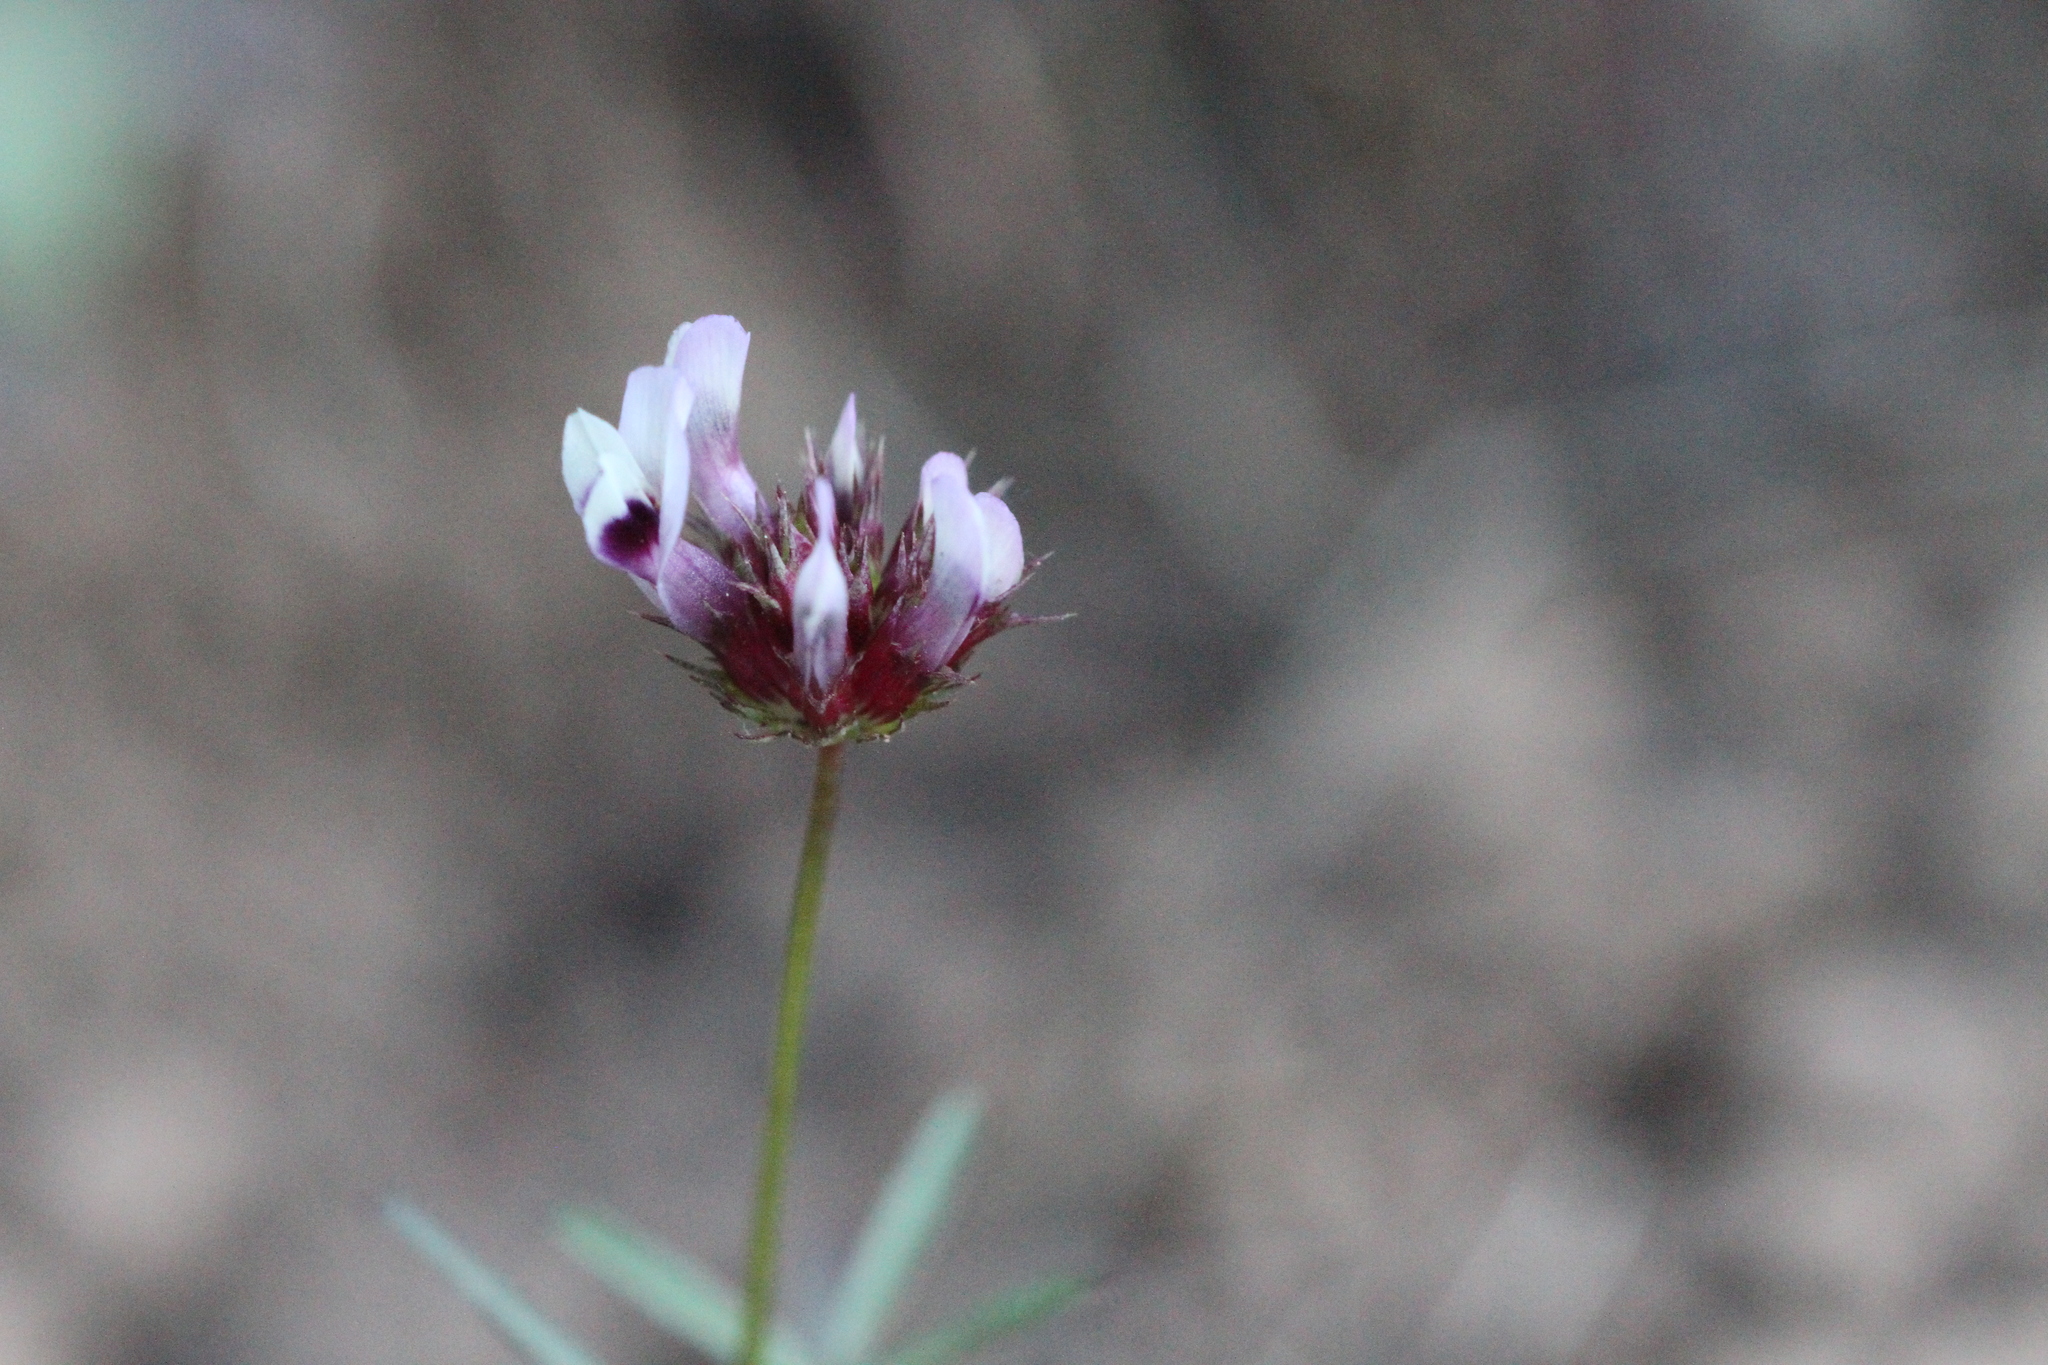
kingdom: Plantae
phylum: Tracheophyta
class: Magnoliopsida
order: Fabales
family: Fabaceae
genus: Trifolium
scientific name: Trifolium willdenovii
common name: Tomcat clover
